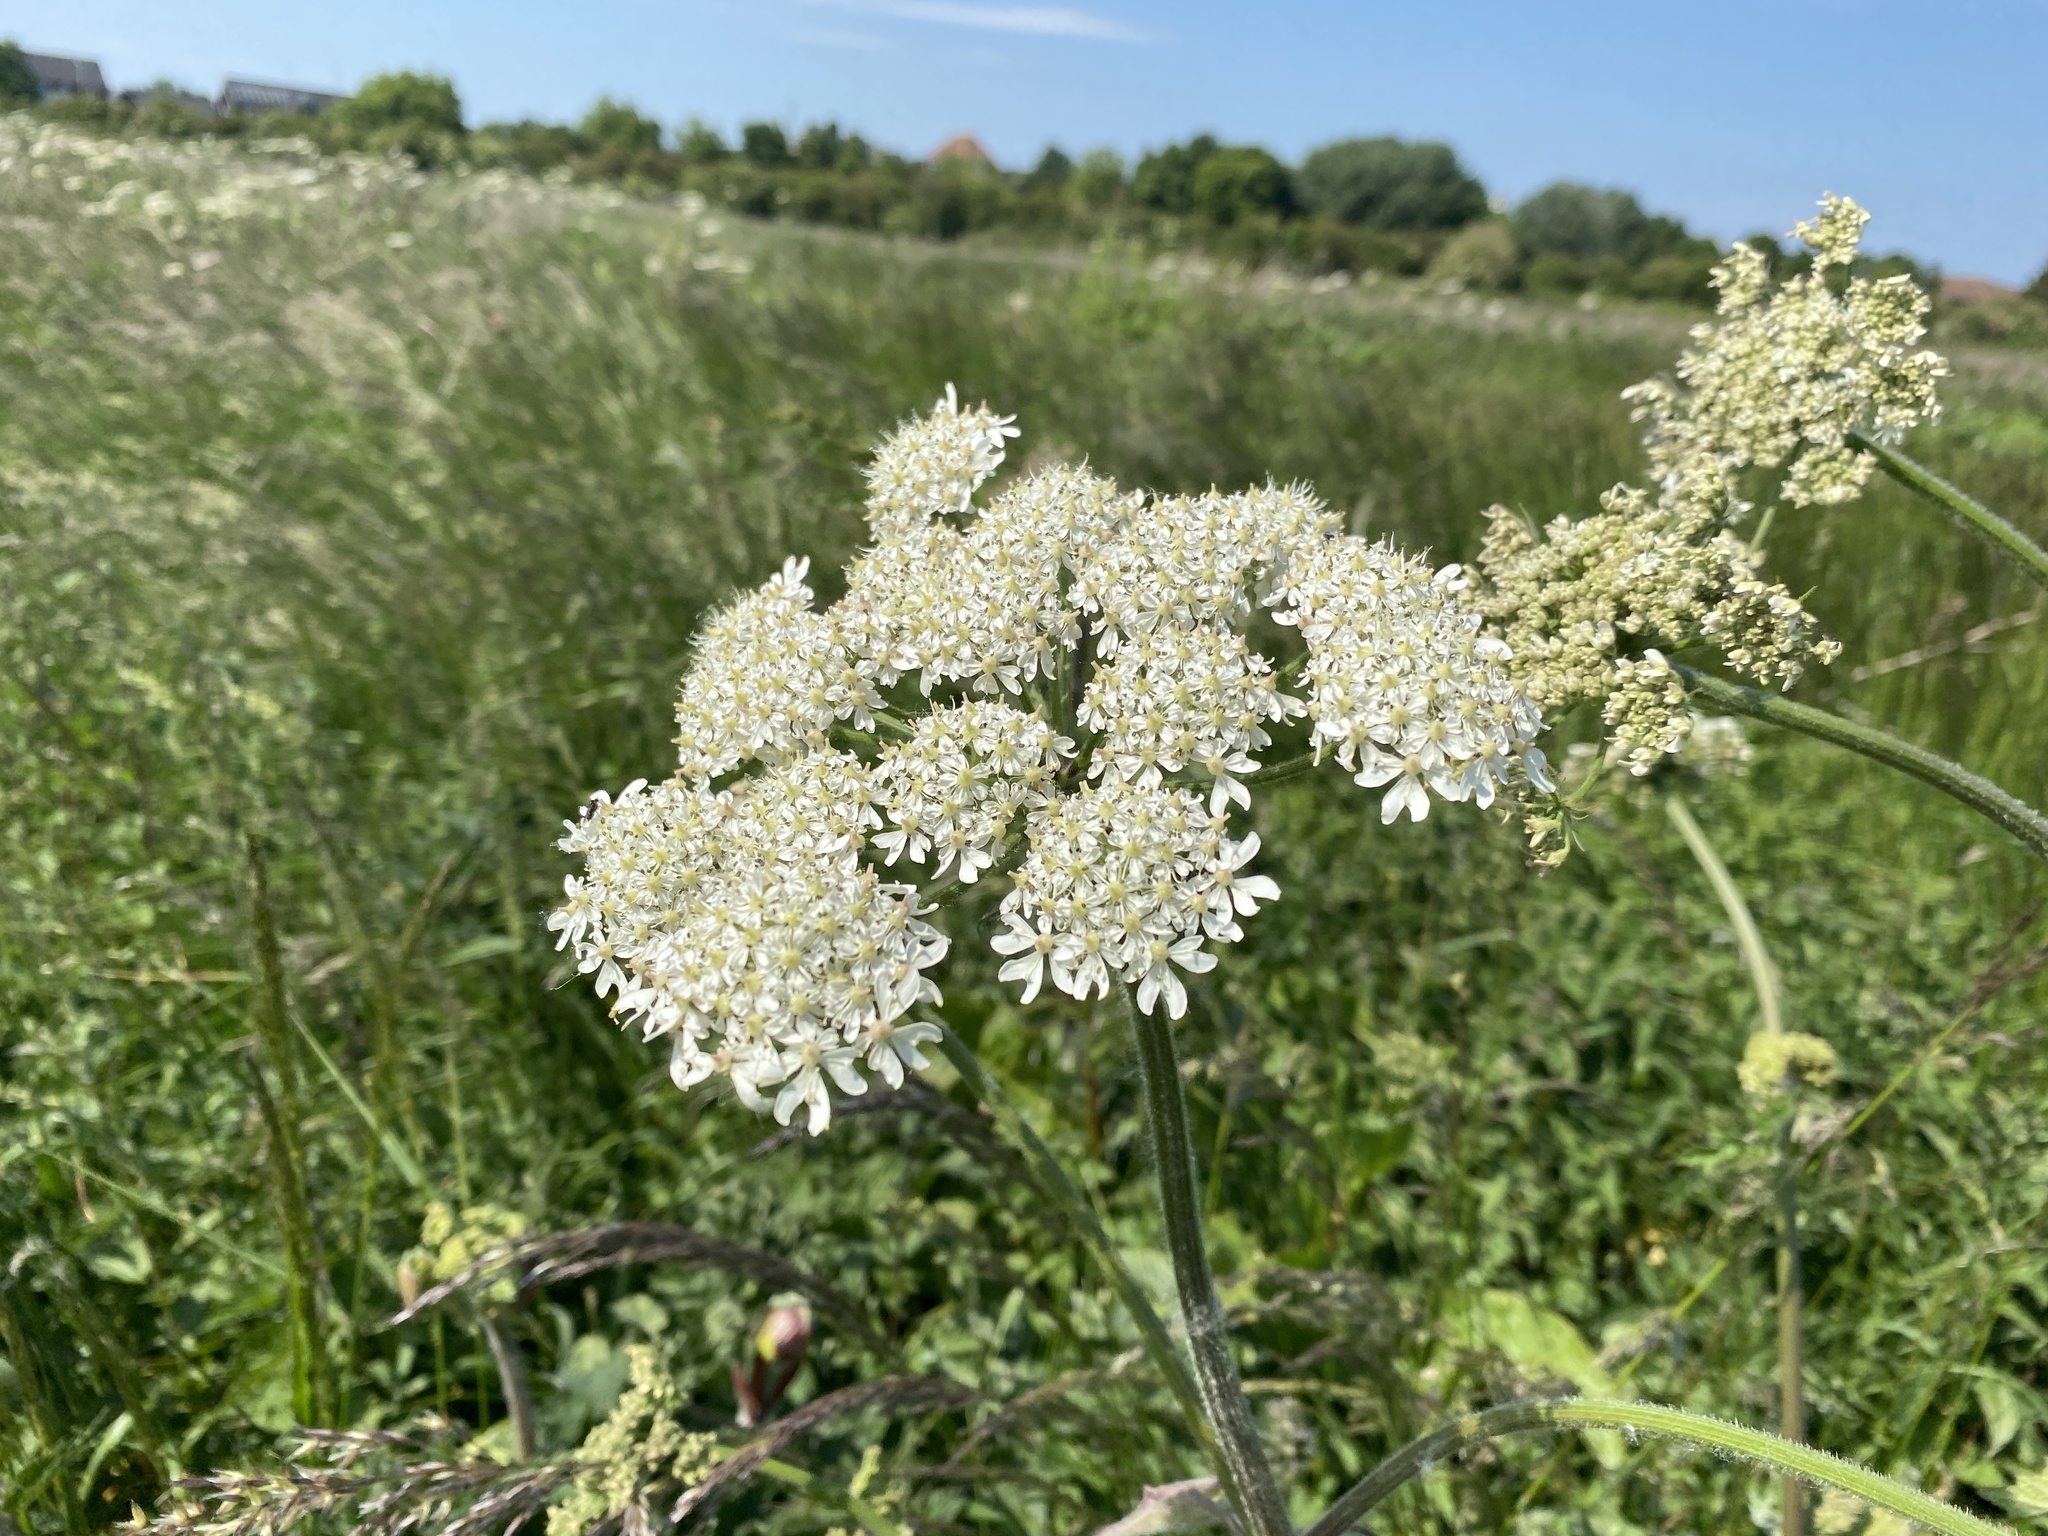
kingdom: Plantae
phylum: Tracheophyta
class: Magnoliopsida
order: Apiales
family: Apiaceae
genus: Heracleum
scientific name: Heracleum sphondylium
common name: Hogweed
